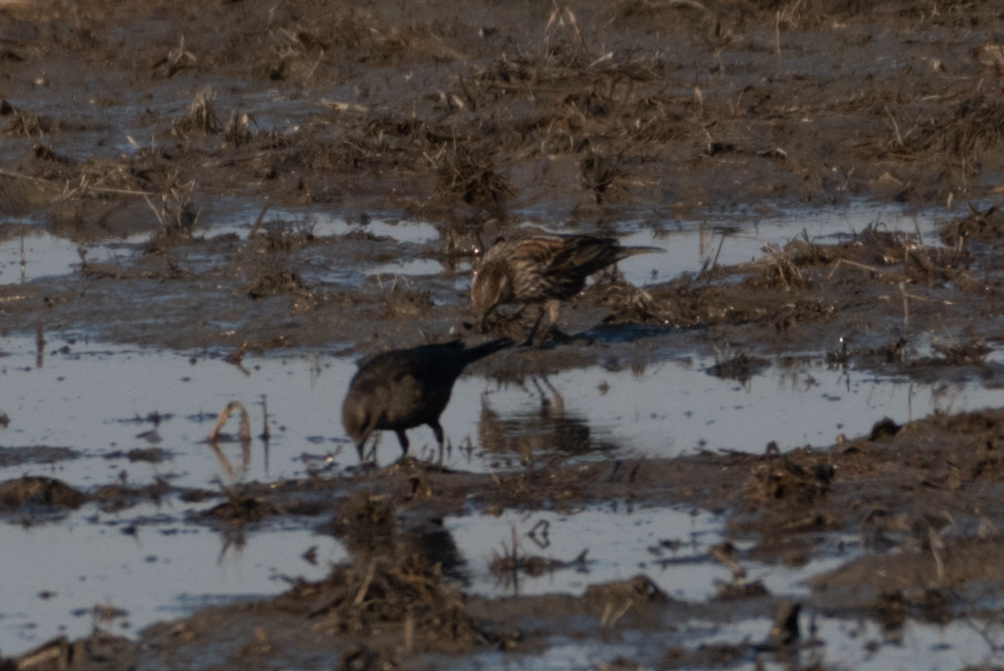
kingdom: Animalia
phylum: Chordata
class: Aves
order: Passeriformes
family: Icteridae
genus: Agelaius
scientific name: Agelaius phoeniceus
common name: Red-winged blackbird
